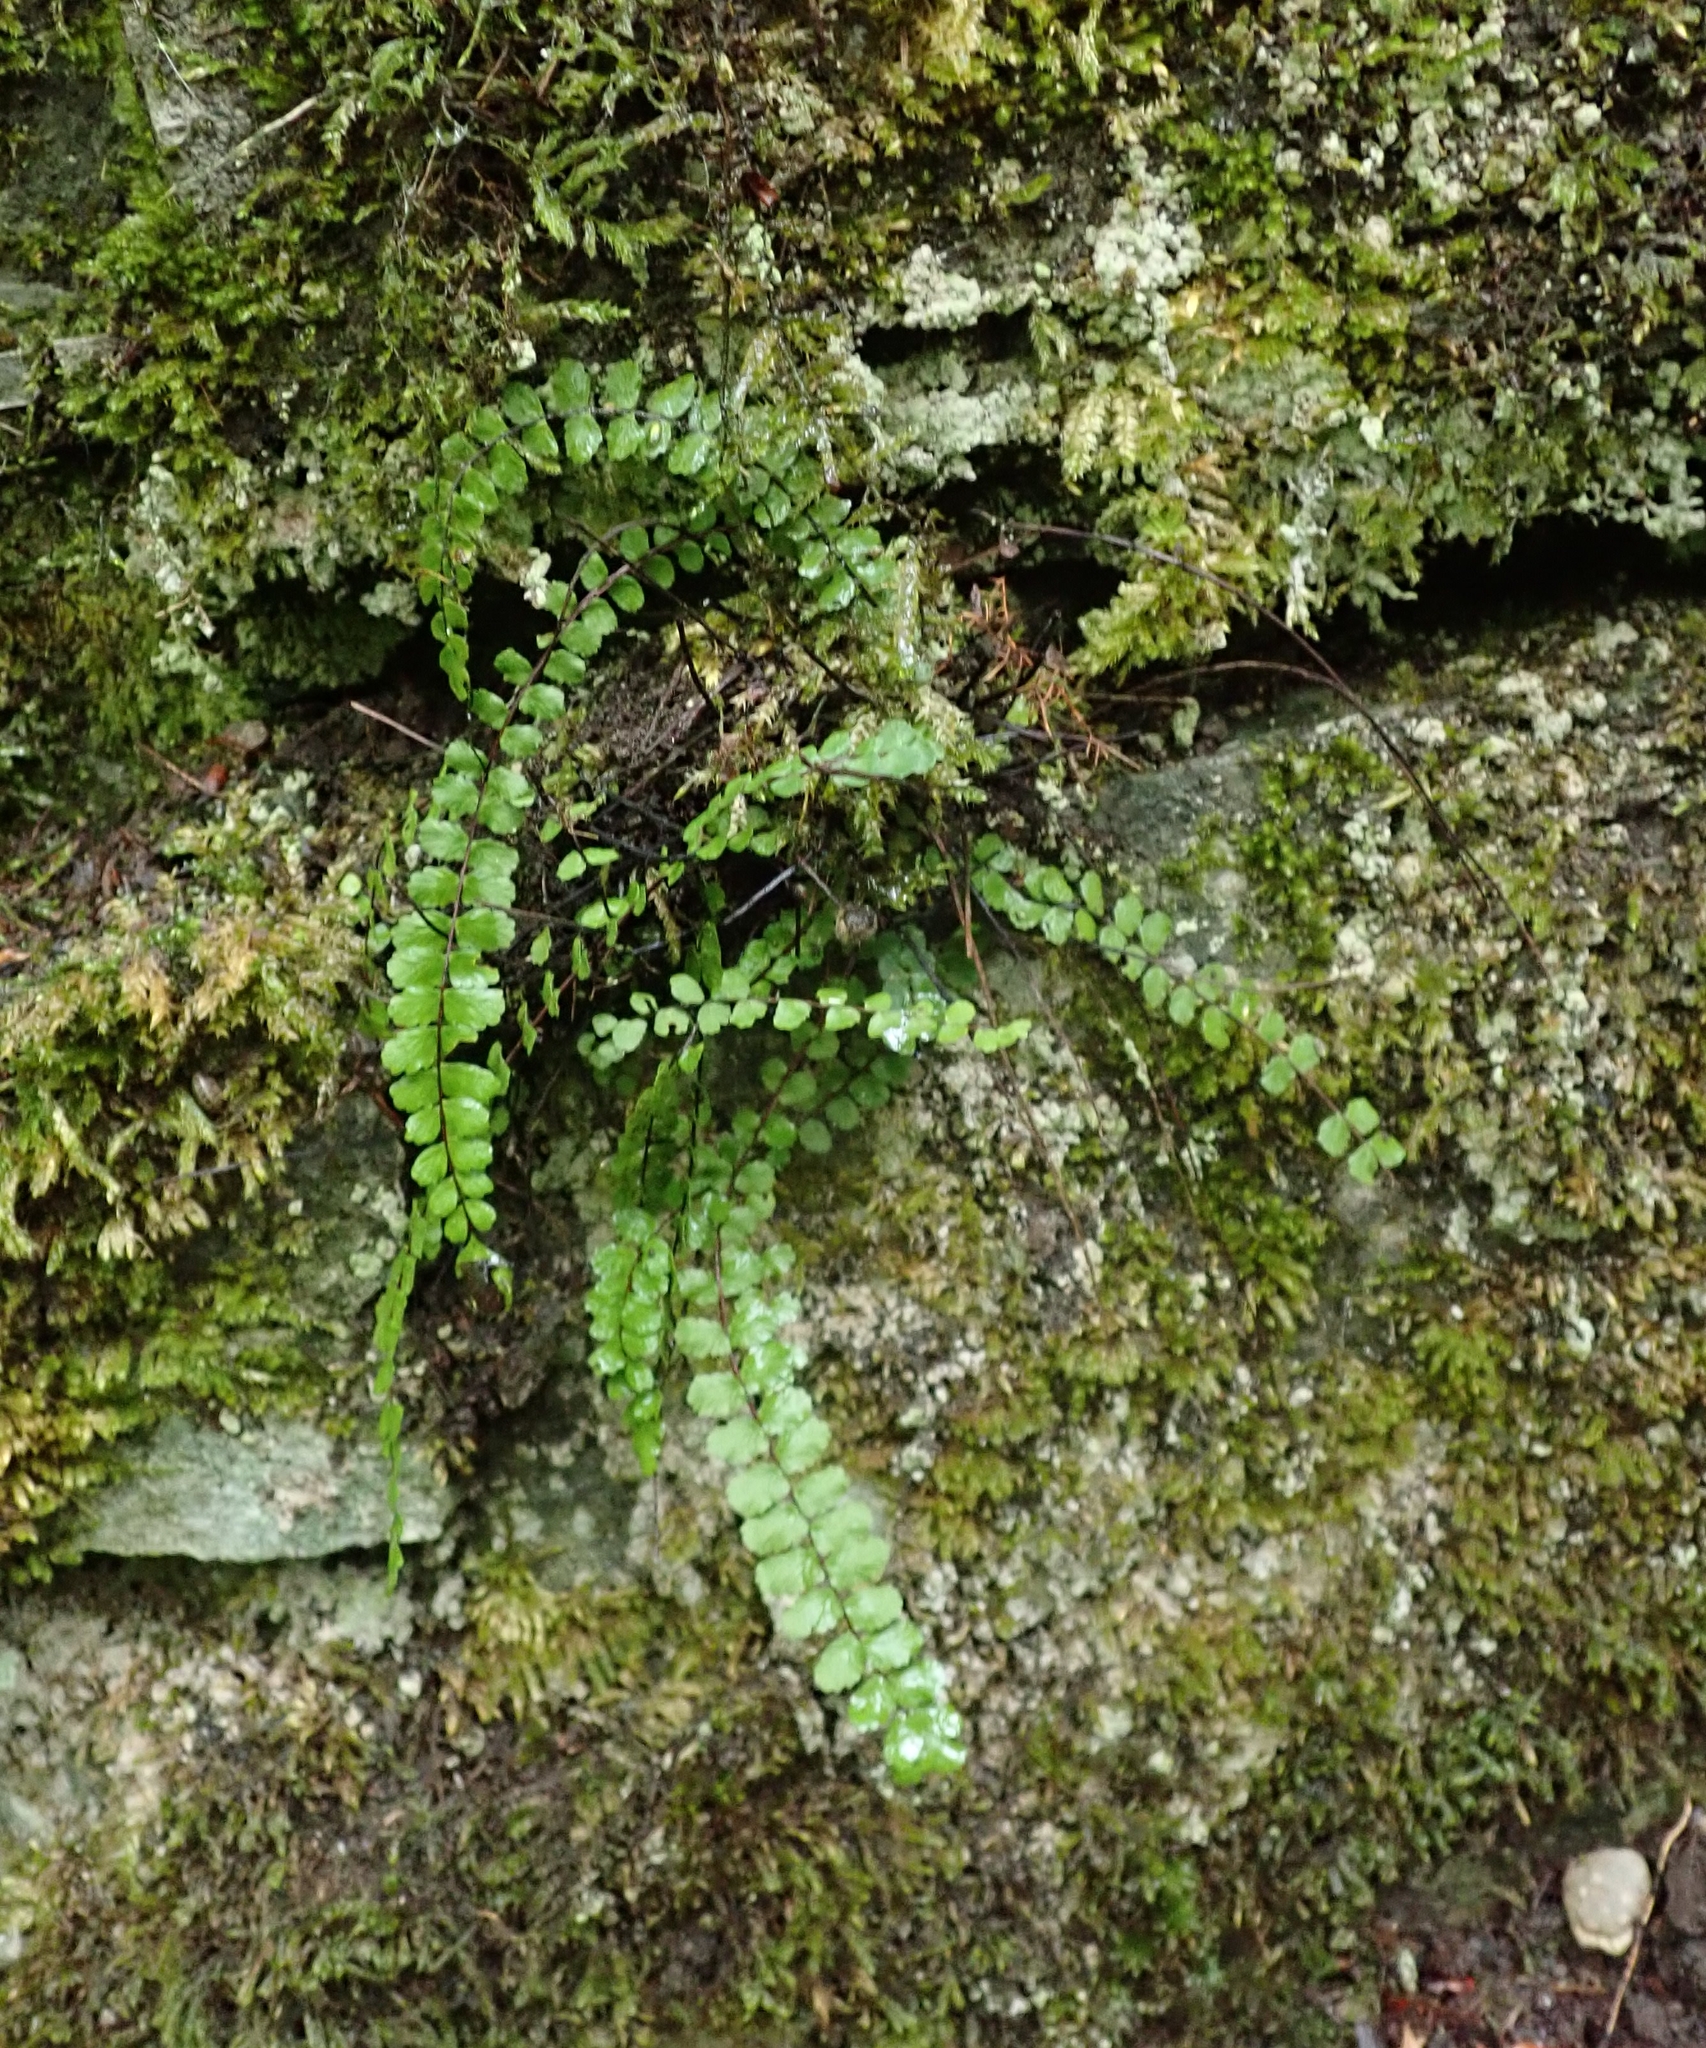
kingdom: Plantae
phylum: Tracheophyta
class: Polypodiopsida
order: Polypodiales
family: Aspleniaceae
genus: Asplenium
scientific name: Asplenium trichomanes
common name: Maidenhair spleenwort
